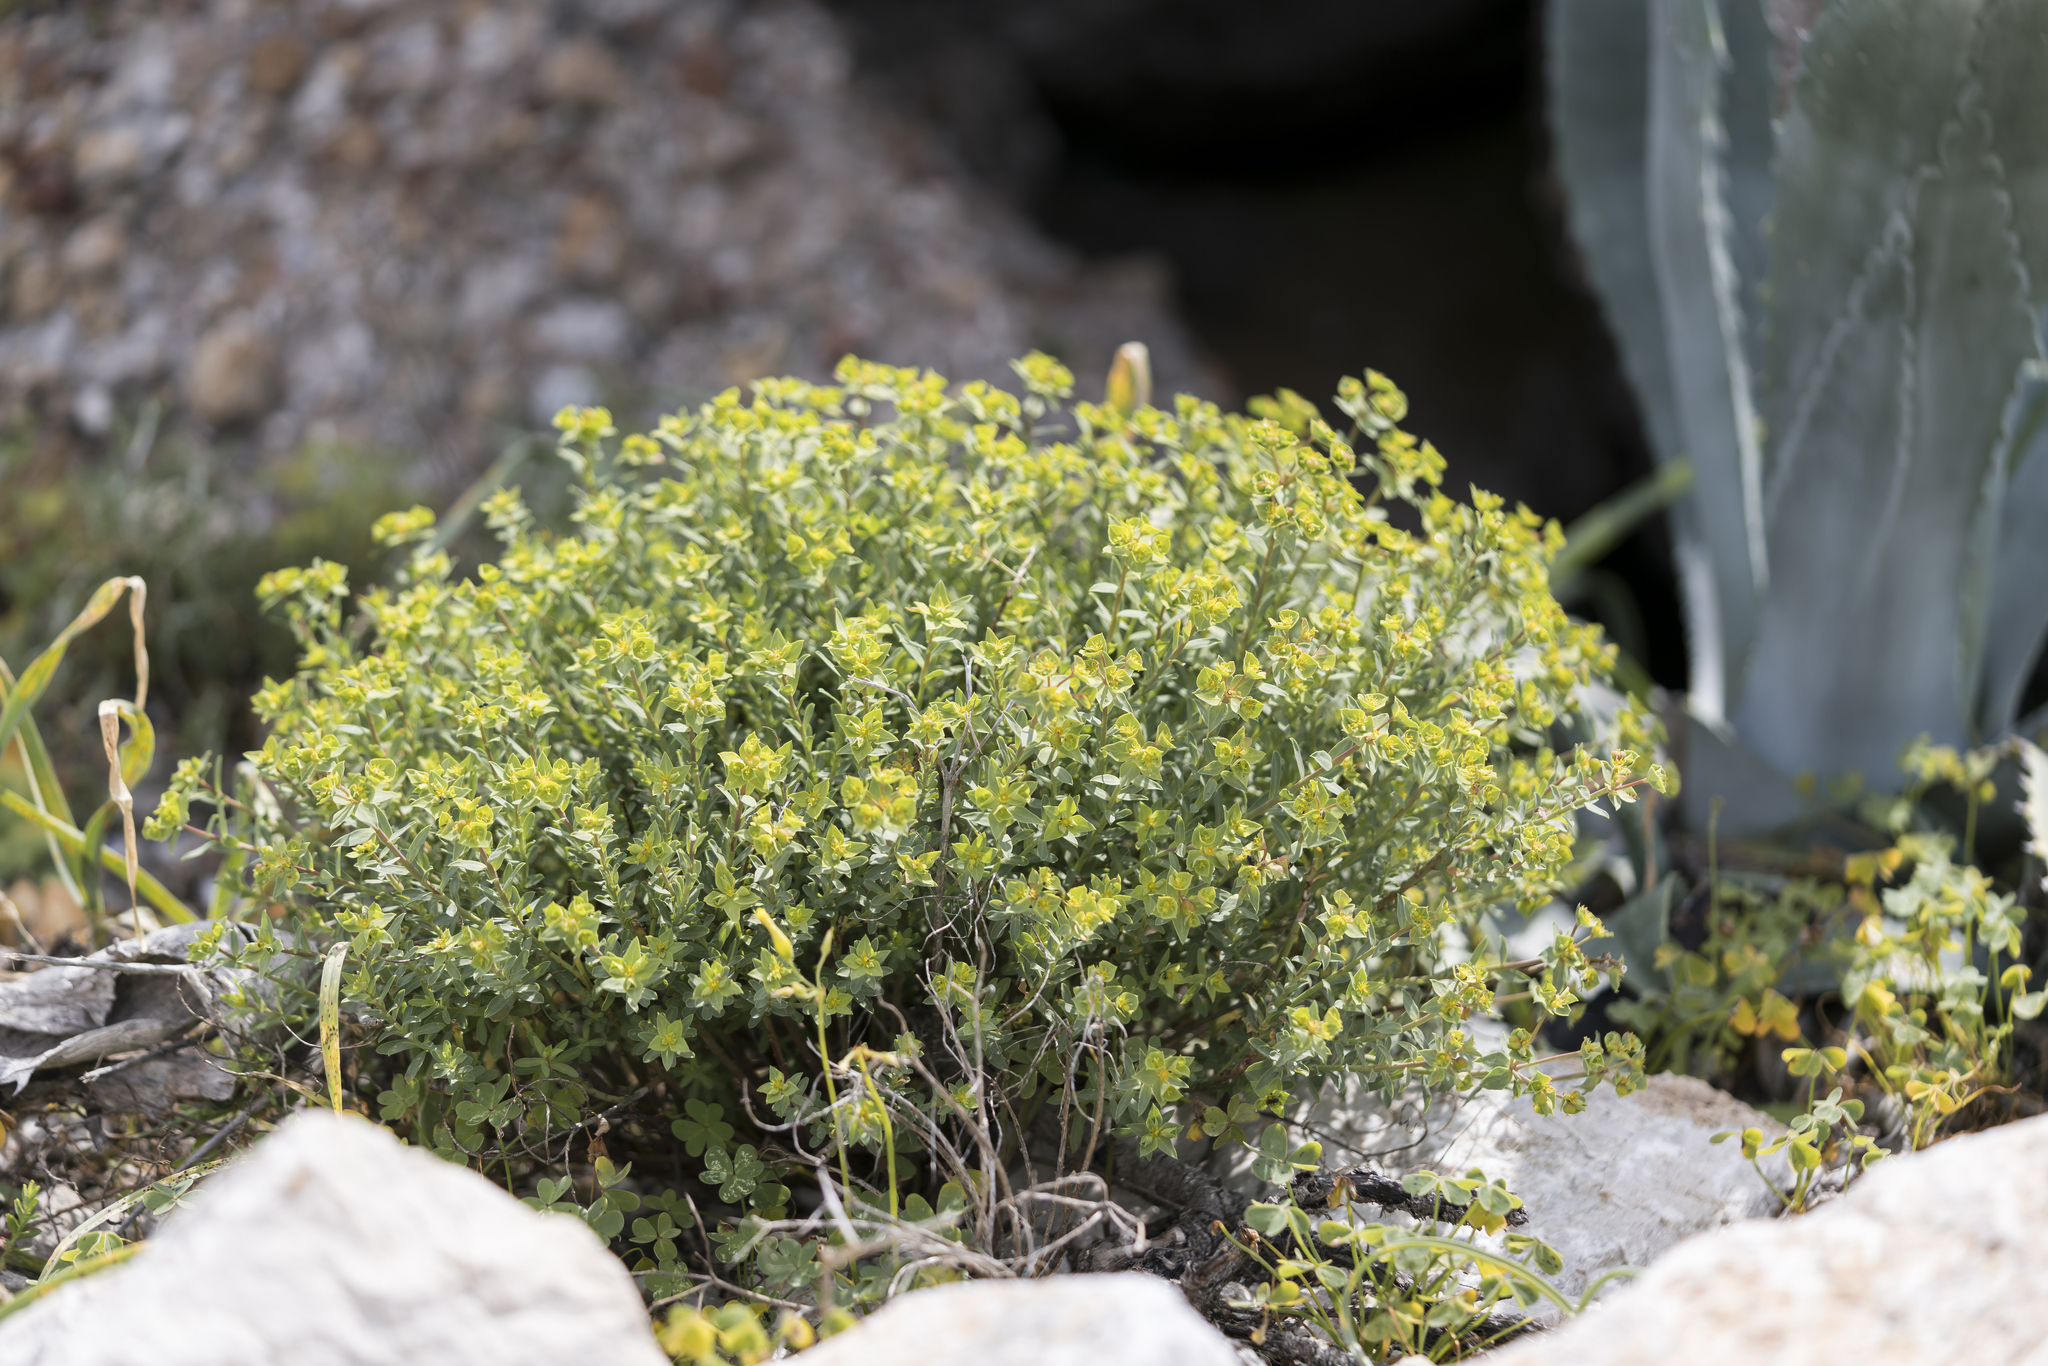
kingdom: Plantae
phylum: Tracheophyta
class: Magnoliopsida
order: Malpighiales
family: Euphorbiaceae
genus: Euphorbia
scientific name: Euphorbia terracina
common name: Geraldton carnation weed
